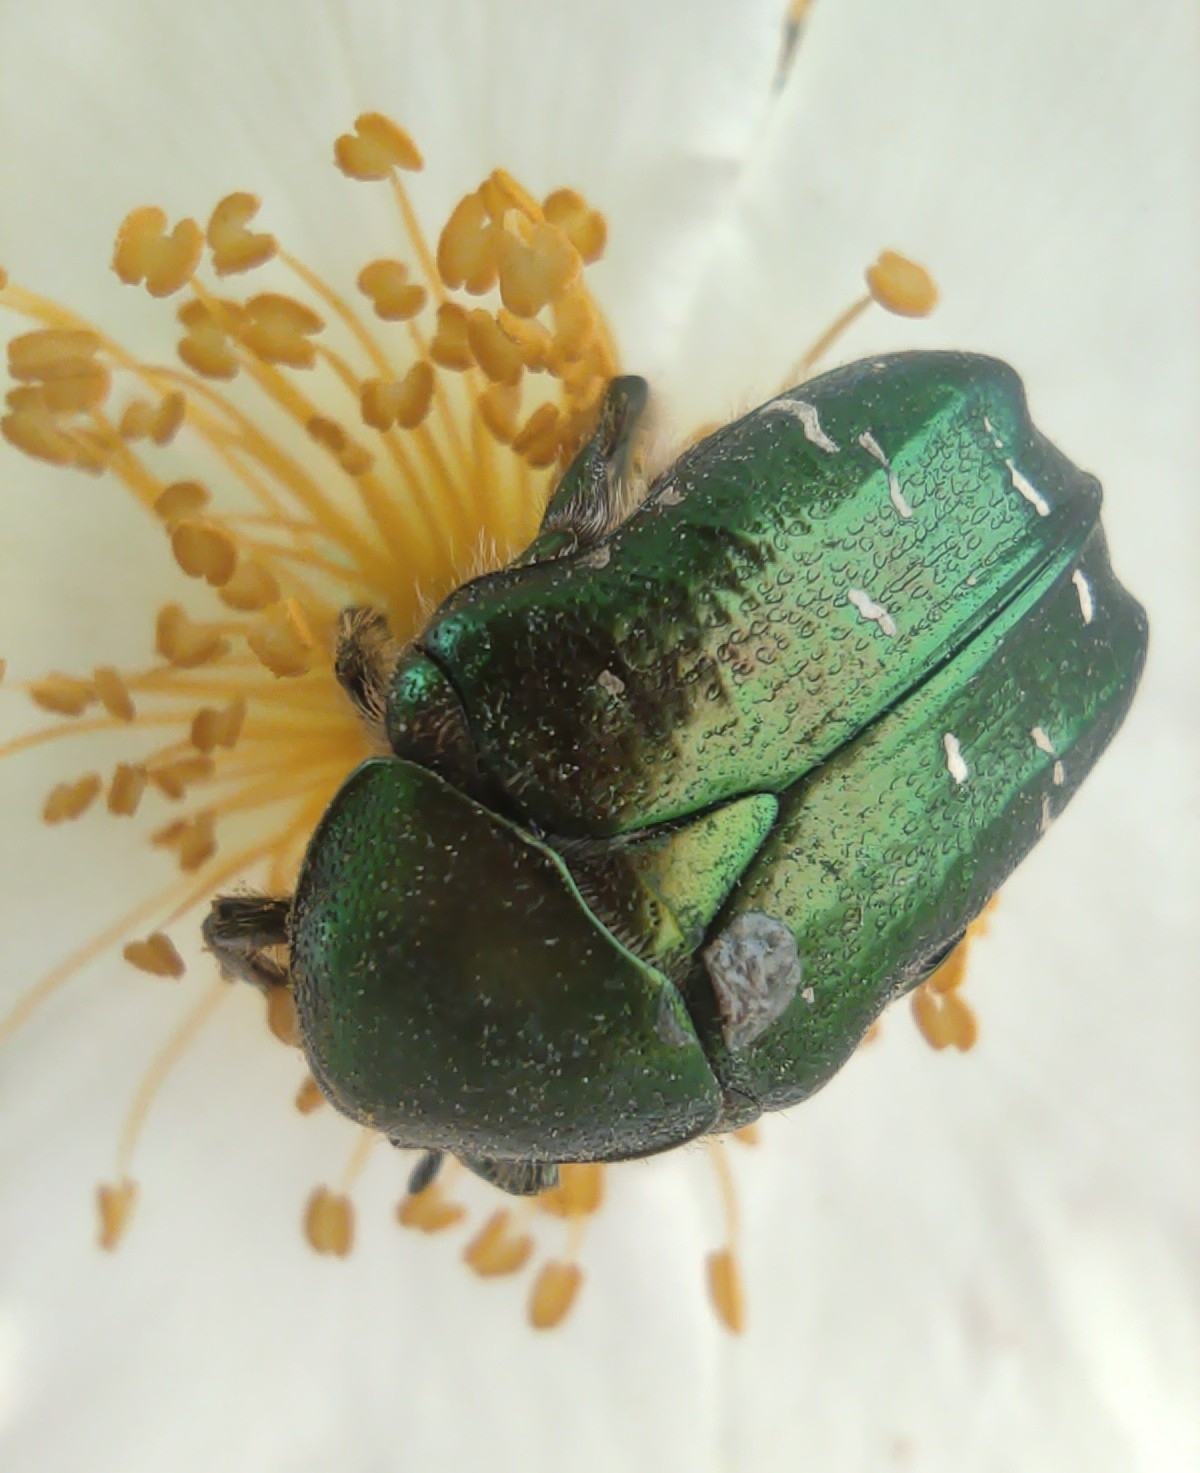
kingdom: Animalia
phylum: Arthropoda
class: Insecta
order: Coleoptera
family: Scarabaeidae
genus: Cetonia
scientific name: Cetonia aurata
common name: Rose chafer
